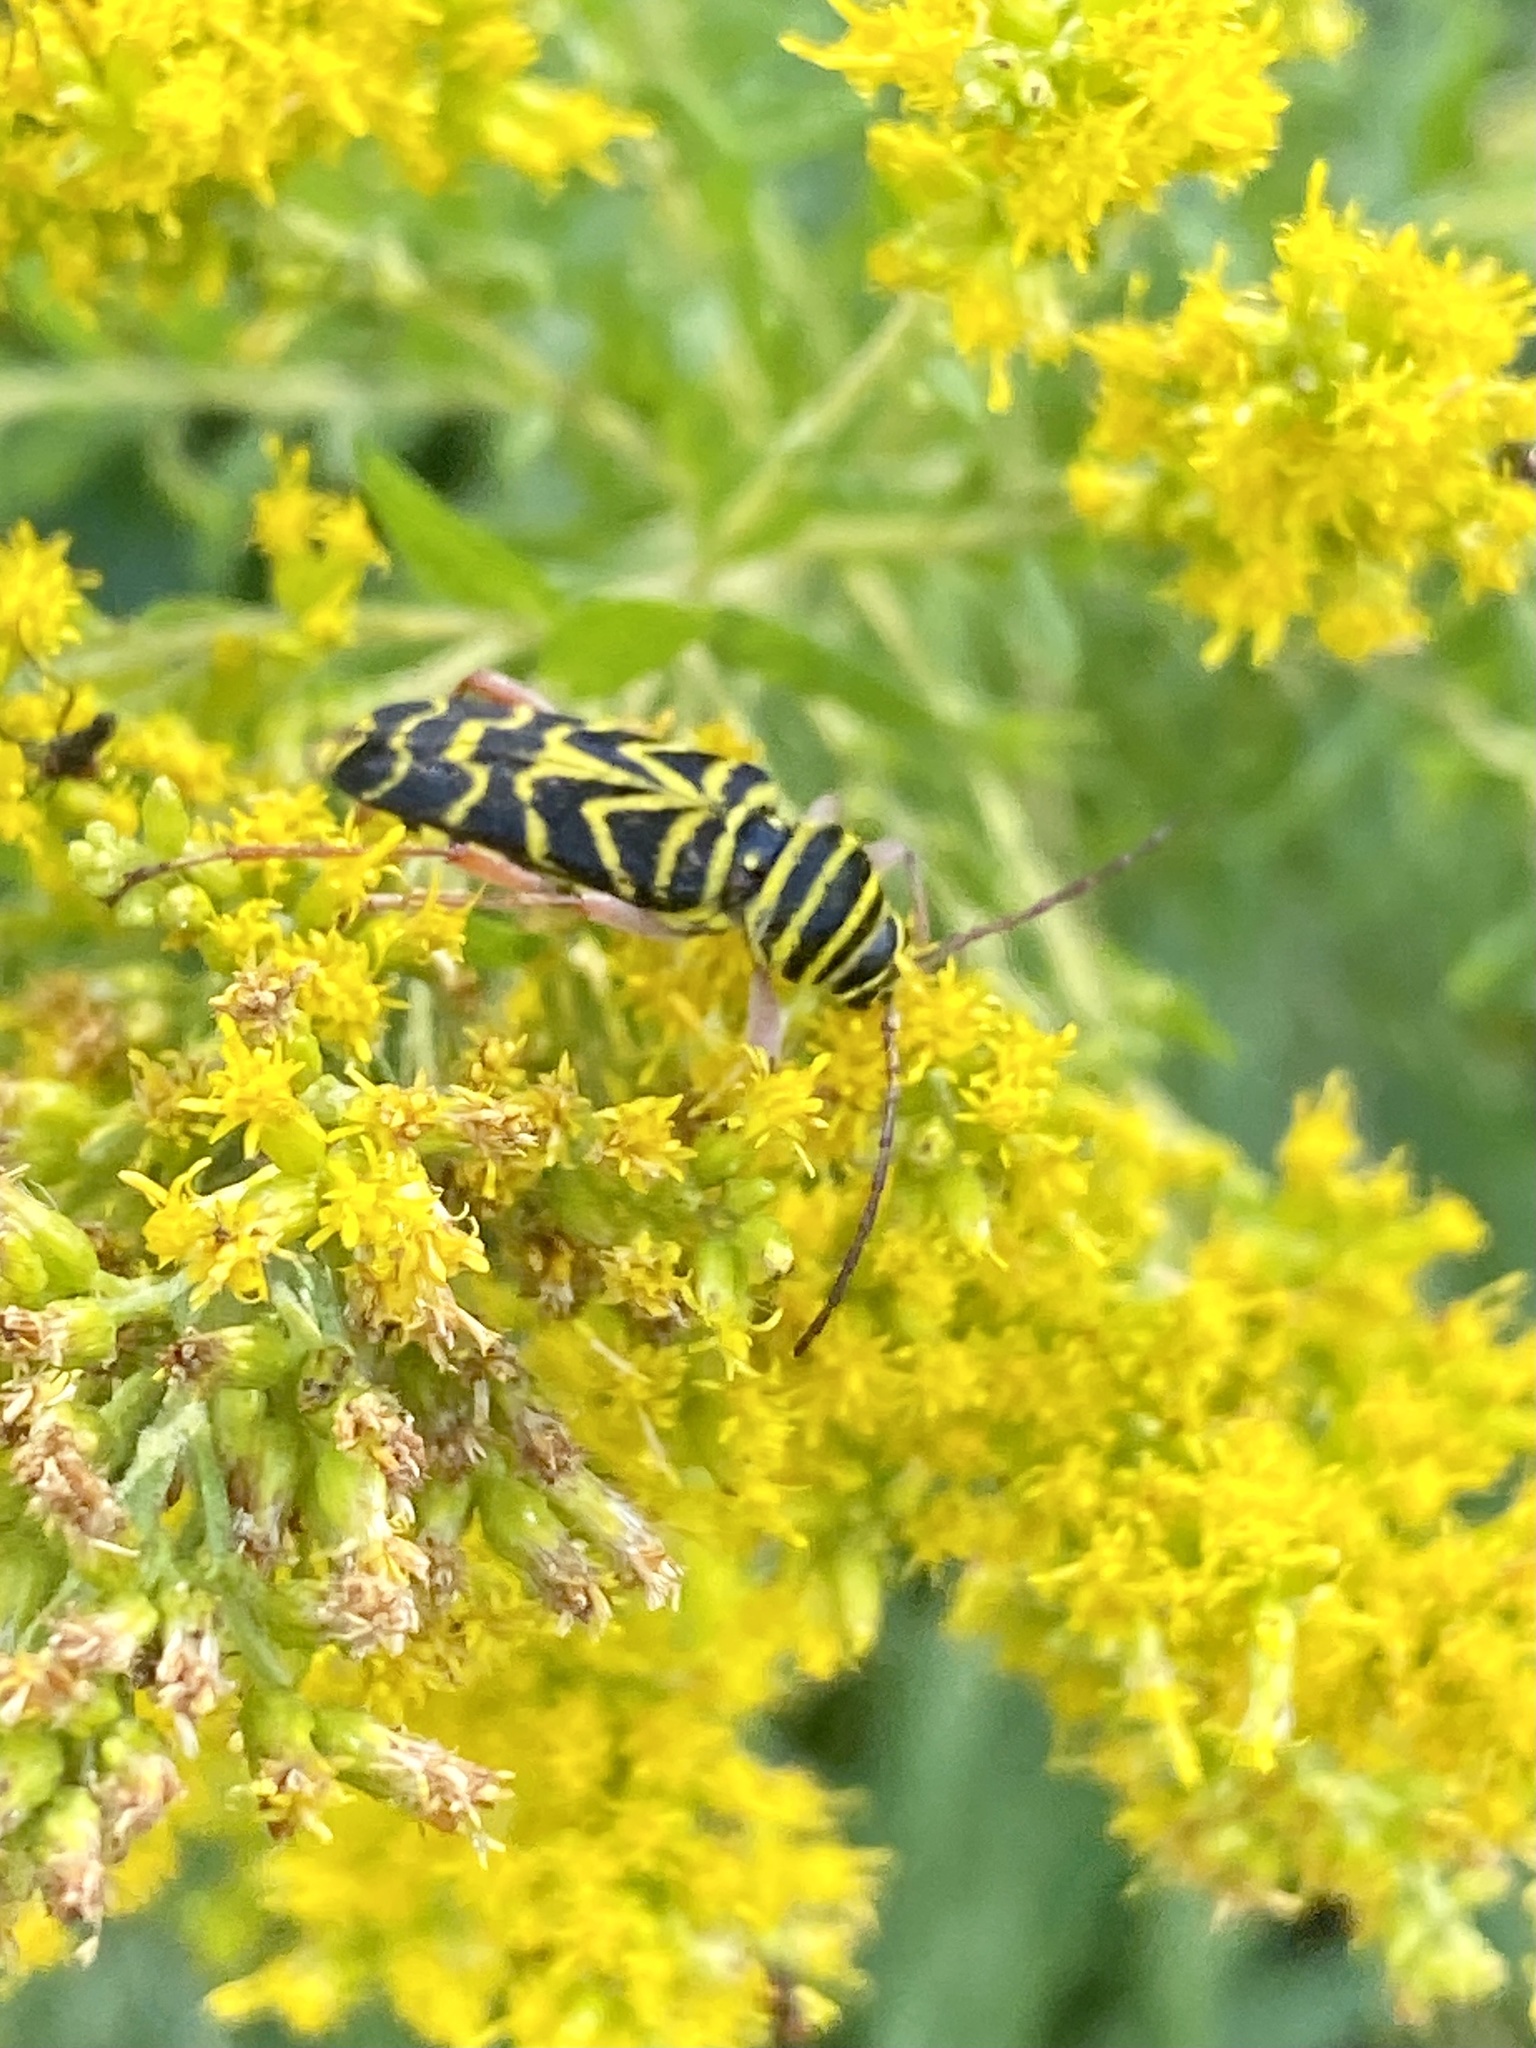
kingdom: Animalia
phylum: Arthropoda
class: Insecta
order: Coleoptera
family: Cerambycidae
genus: Megacyllene
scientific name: Megacyllene robiniae
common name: Locust borer
